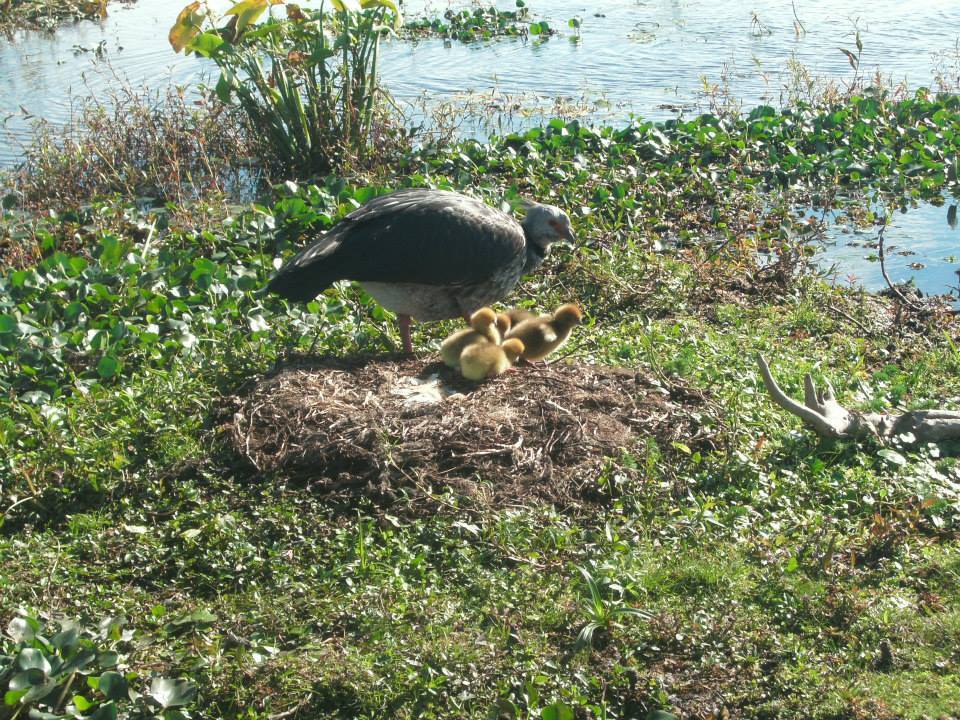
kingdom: Animalia
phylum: Chordata
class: Aves
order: Anseriformes
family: Anhimidae
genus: Chauna
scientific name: Chauna torquata
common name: Southern screamer
